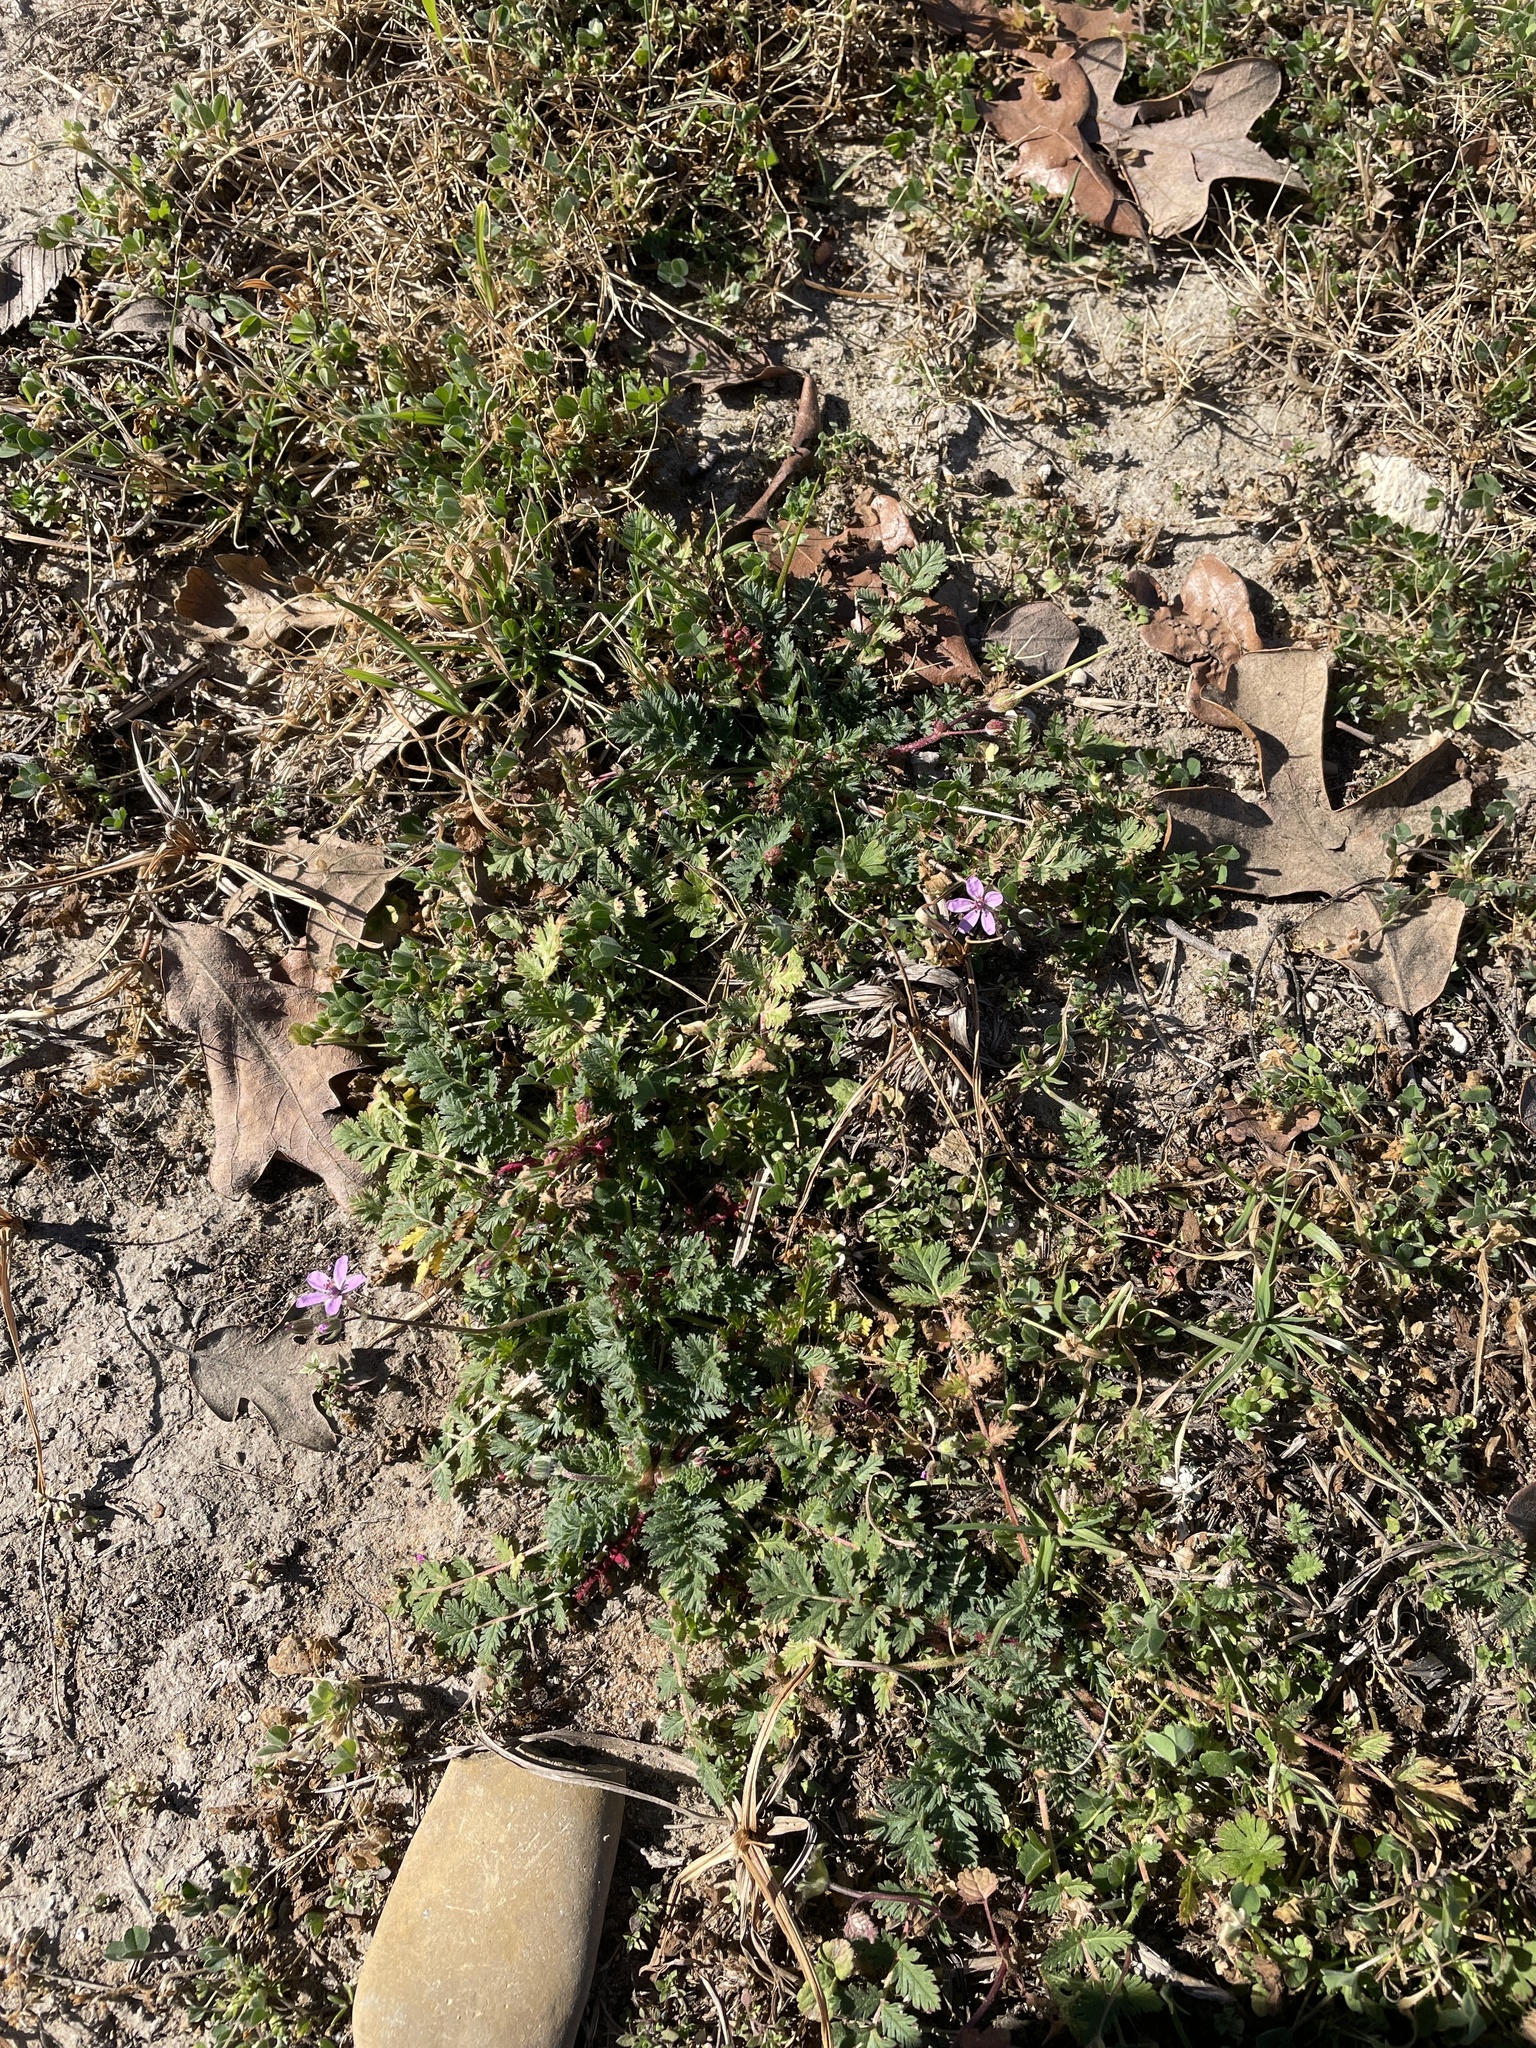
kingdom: Plantae
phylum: Tracheophyta
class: Magnoliopsida
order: Geraniales
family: Geraniaceae
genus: Erodium
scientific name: Erodium cicutarium
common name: Common stork's-bill
